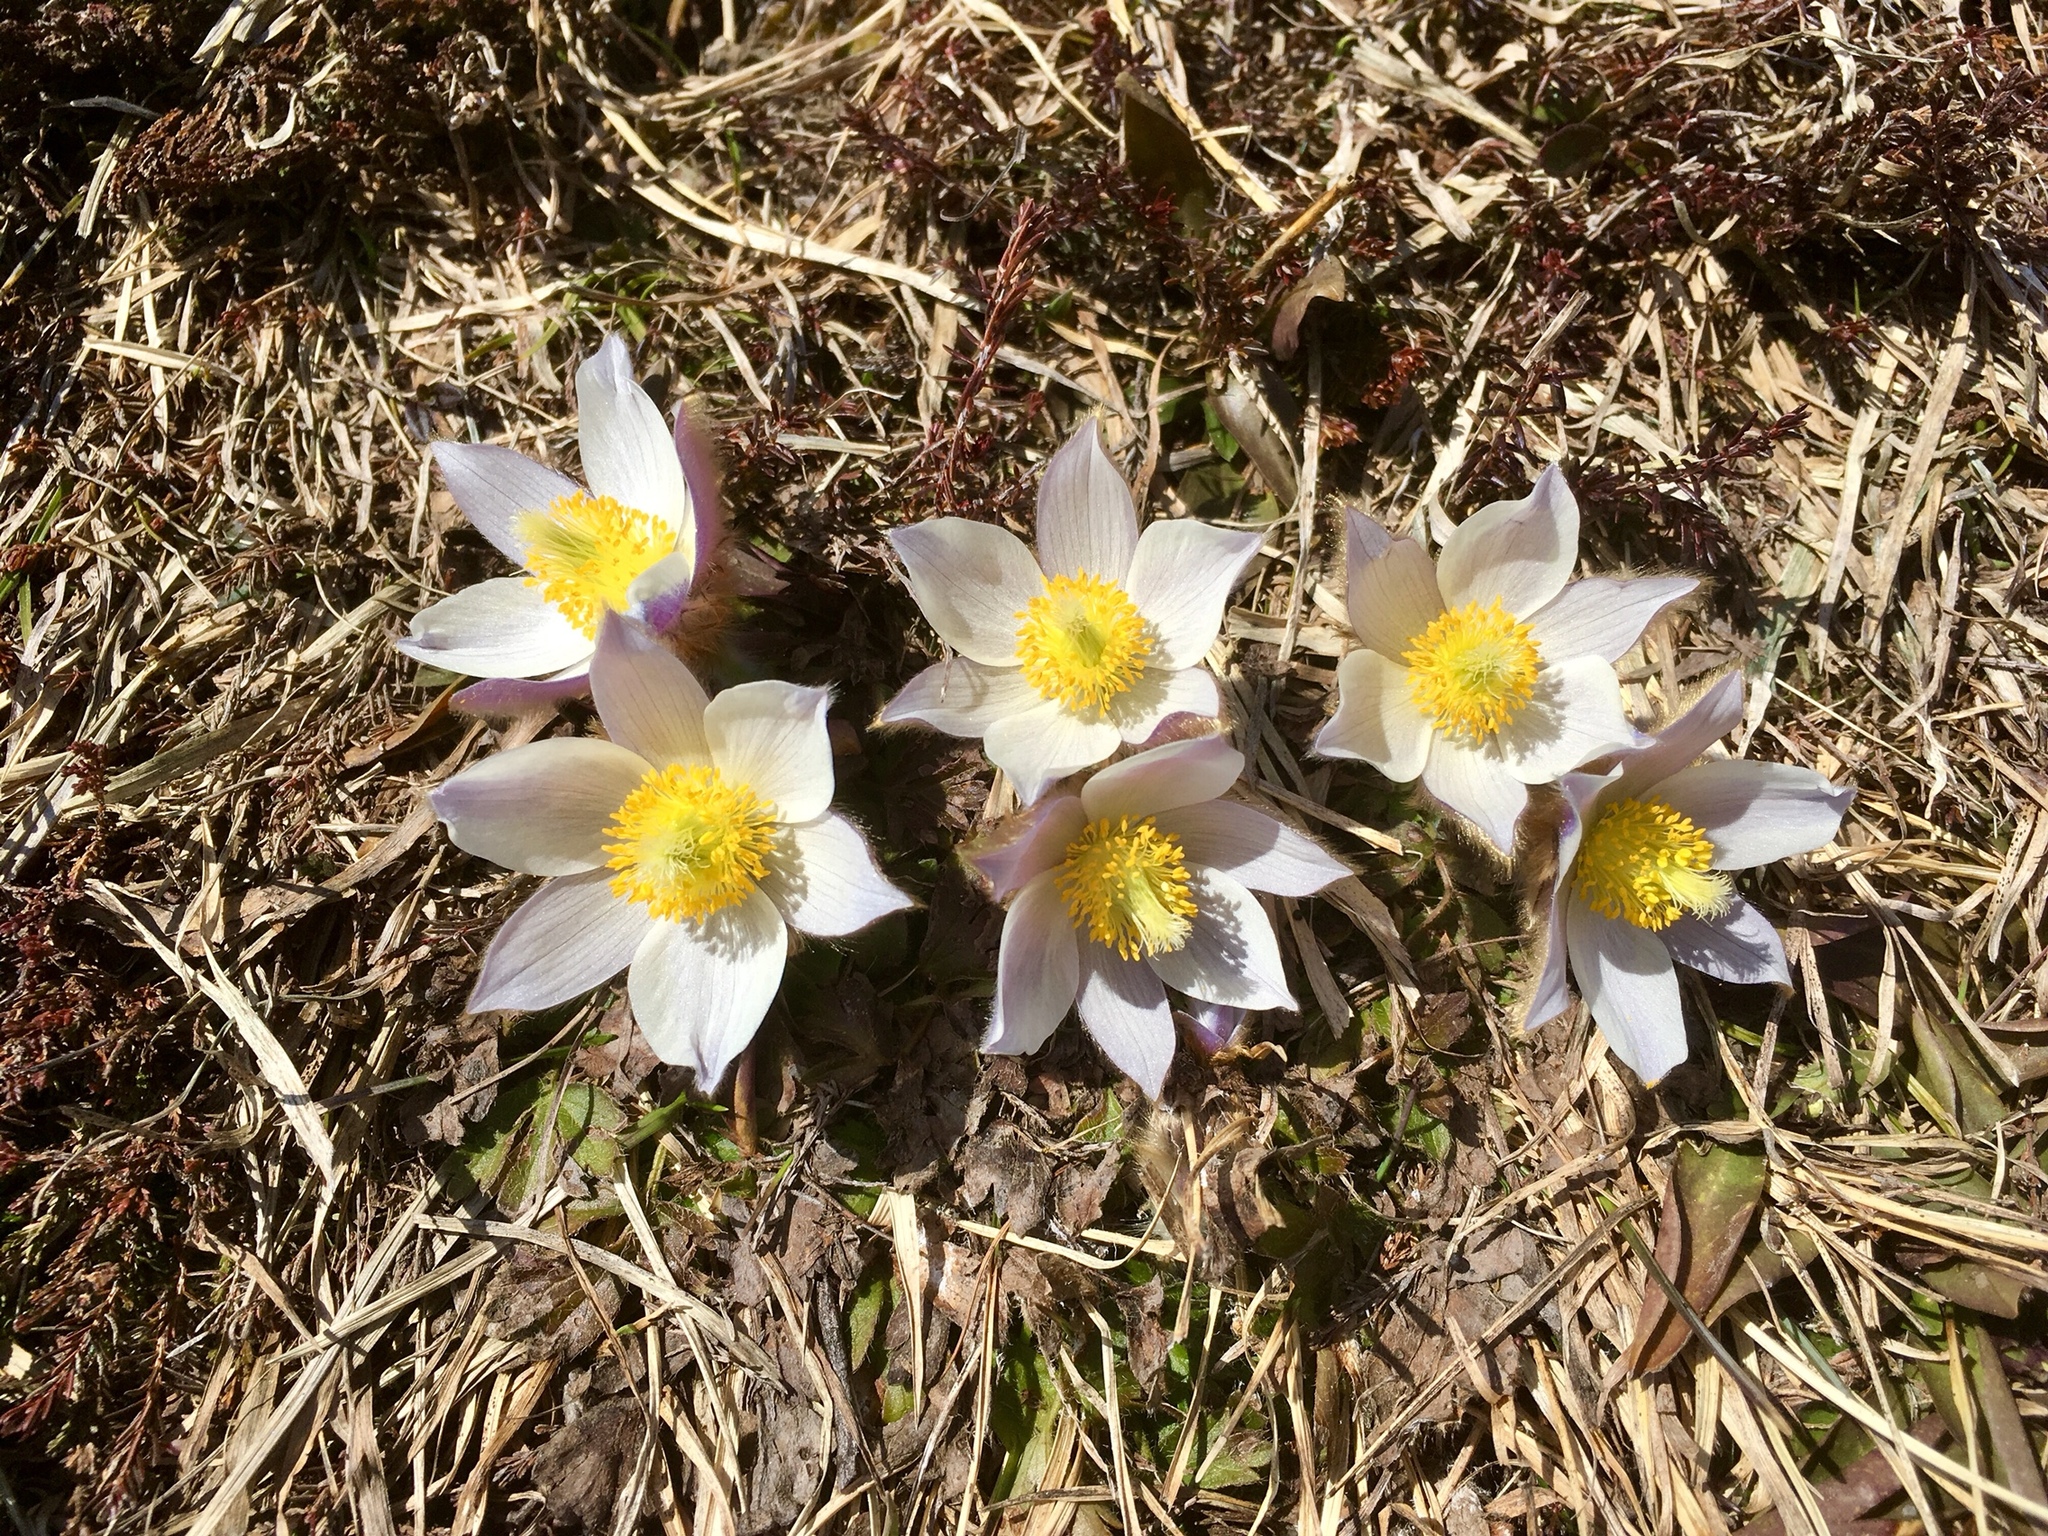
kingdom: Plantae
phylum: Tracheophyta
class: Magnoliopsida
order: Ranunculales
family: Ranunculaceae
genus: Pulsatilla
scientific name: Pulsatilla vernalis
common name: Spring pasque flower
